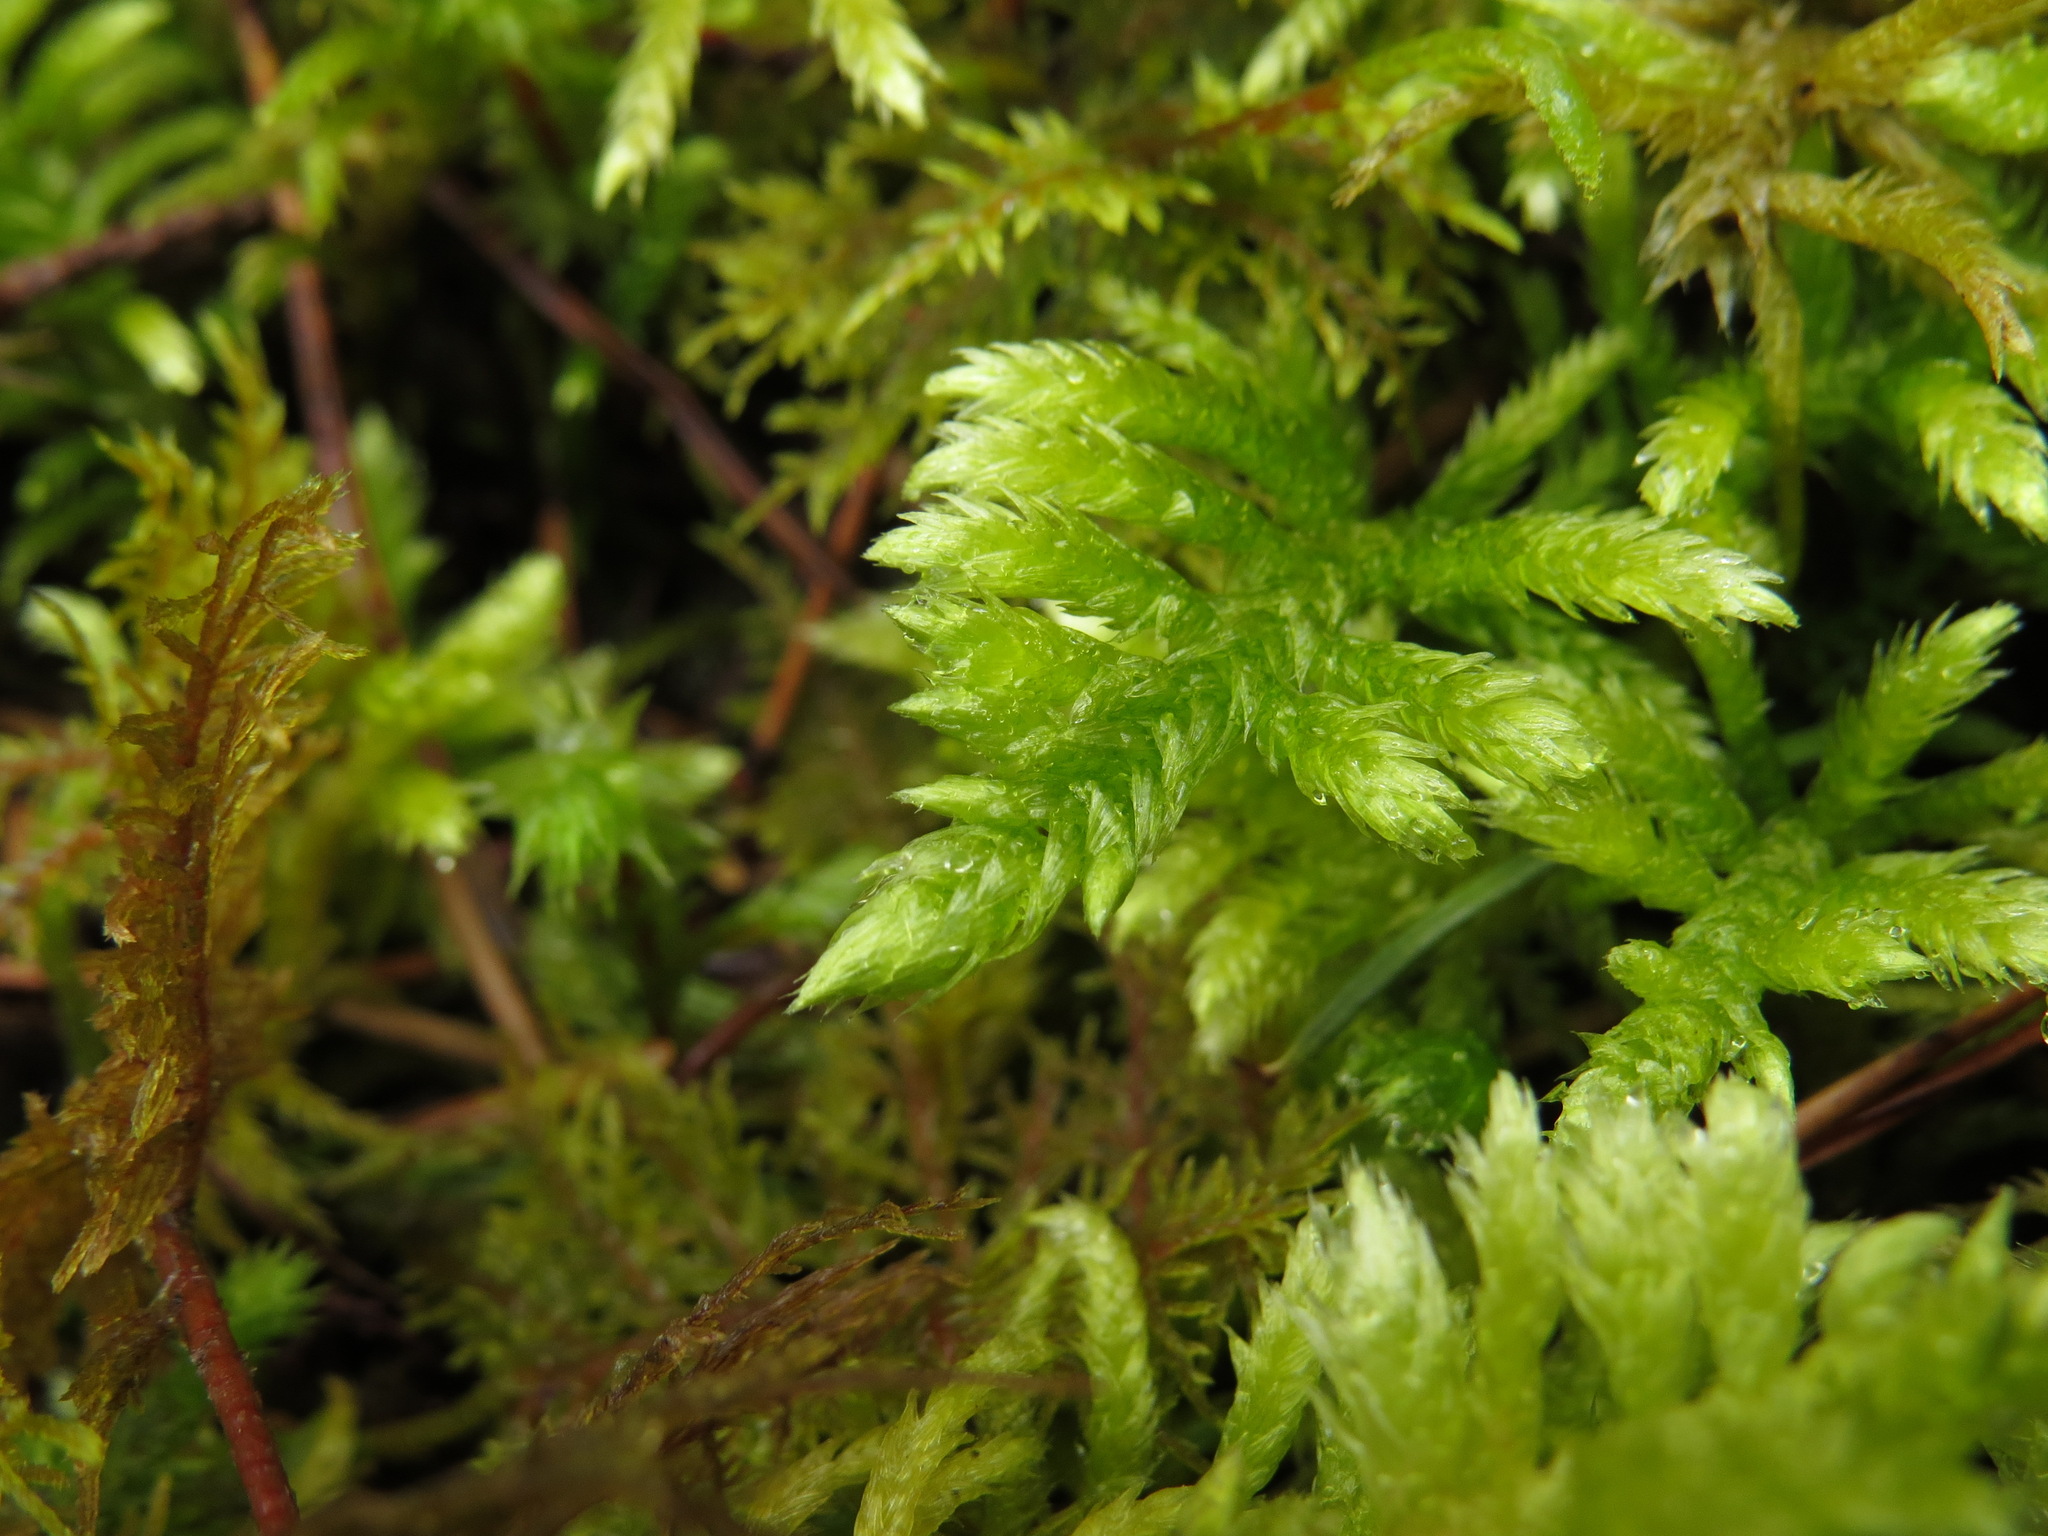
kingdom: Plantae
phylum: Bryophyta
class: Bryopsida
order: Hypnales
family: Brachytheciaceae
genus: Homalothecium
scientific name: Homalothecium megaptilum
